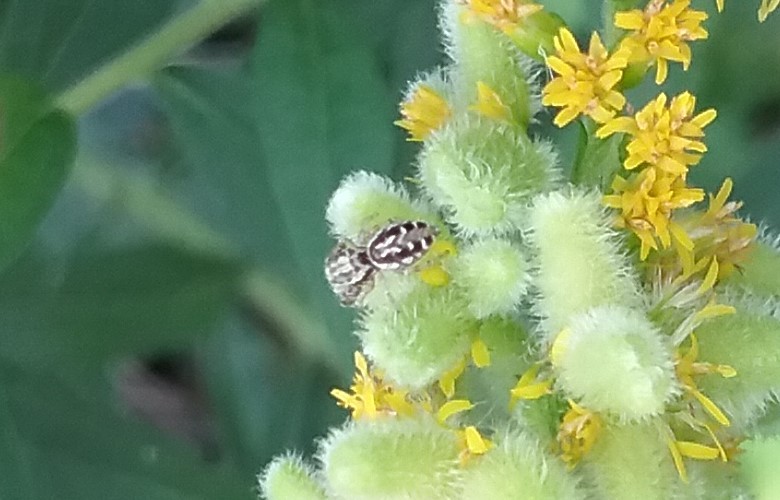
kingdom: Animalia
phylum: Arthropoda
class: Arachnida
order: Araneae
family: Salticidae
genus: Pelegrina
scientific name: Pelegrina galathea
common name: Jumping spiders
